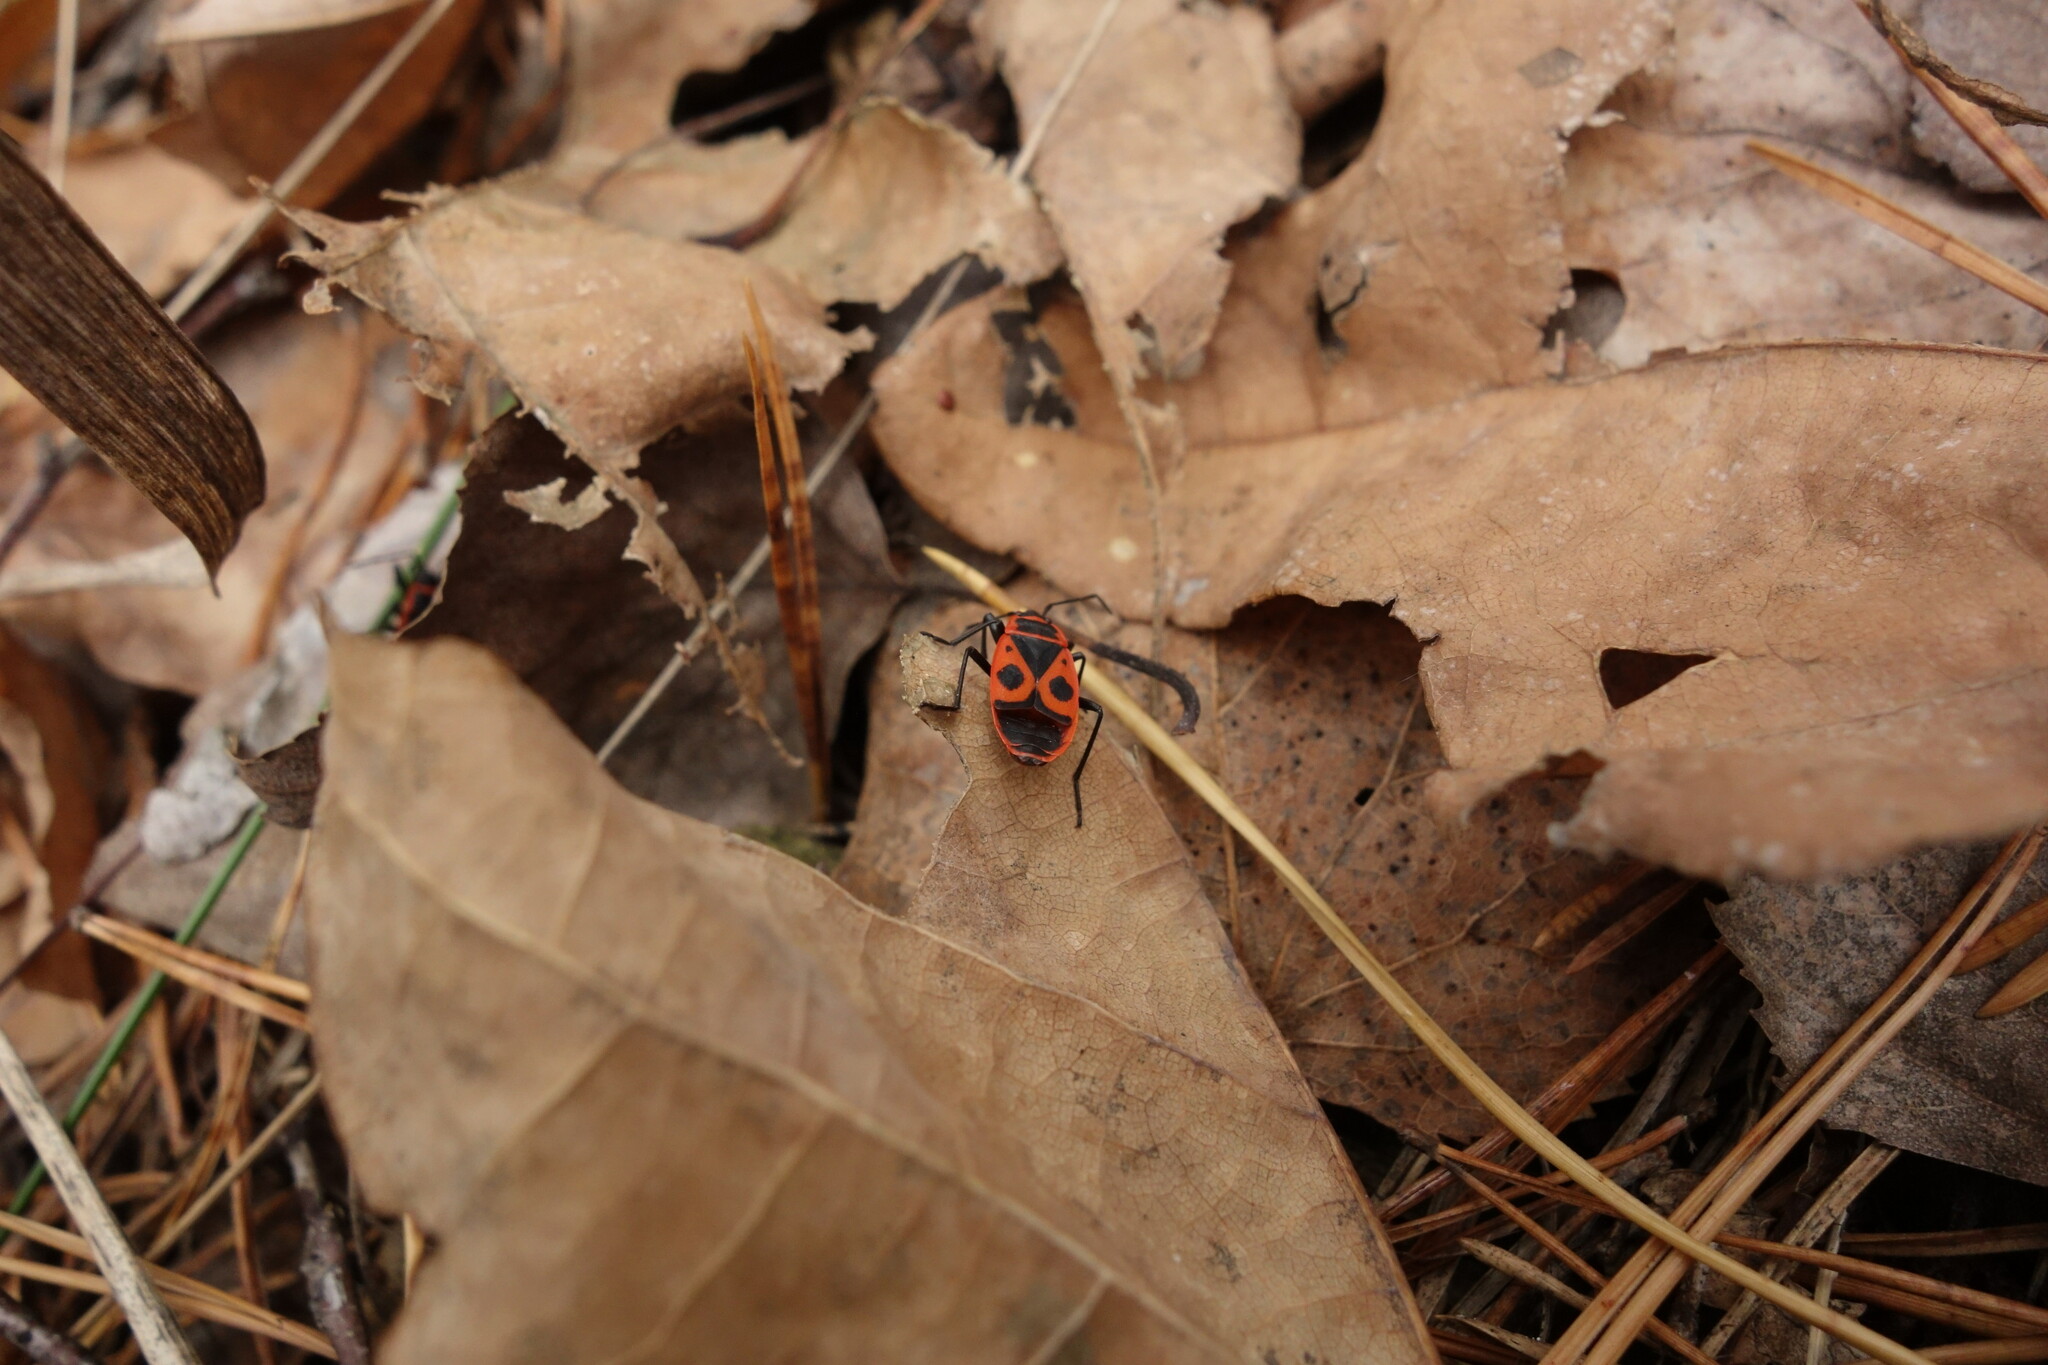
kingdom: Animalia
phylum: Arthropoda
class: Insecta
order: Hemiptera
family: Pyrrhocoridae
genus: Pyrrhocoris
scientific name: Pyrrhocoris apterus
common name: Firebug
